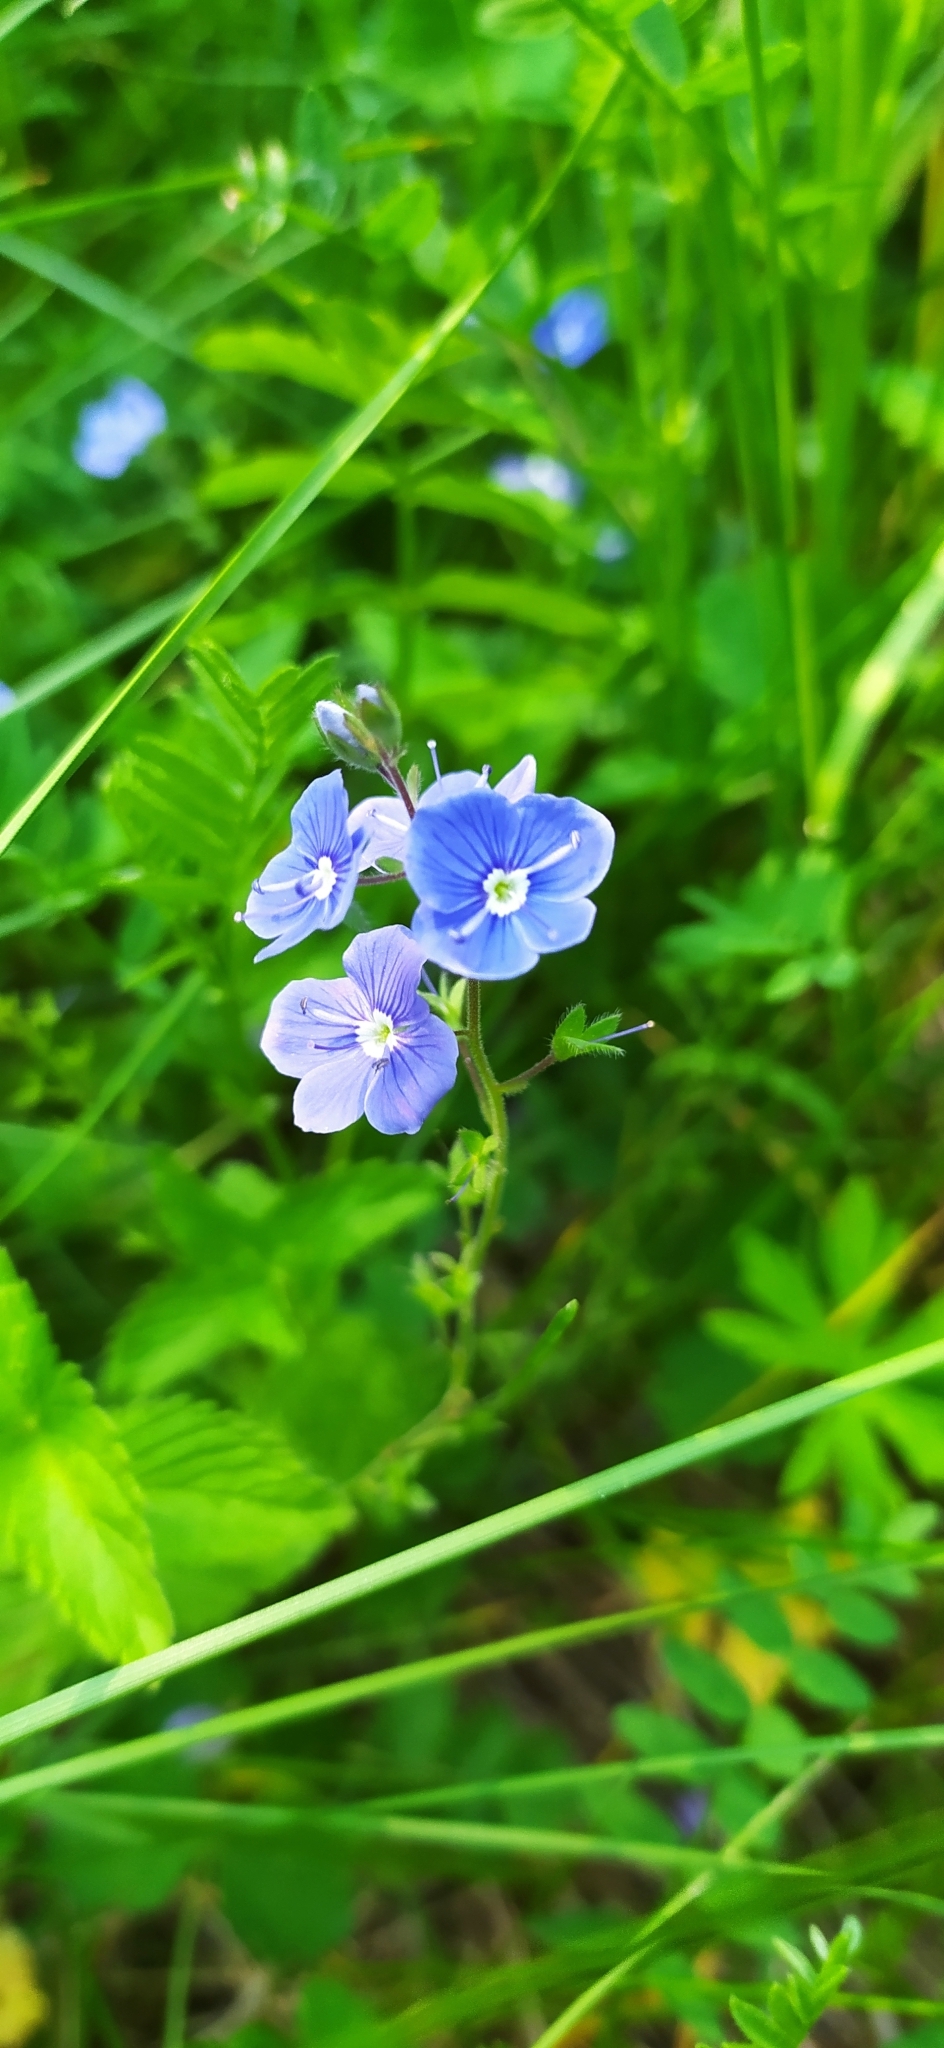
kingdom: Plantae
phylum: Tracheophyta
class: Magnoliopsida
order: Lamiales
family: Plantaginaceae
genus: Veronica
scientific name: Veronica chamaedrys
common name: Germander speedwell
